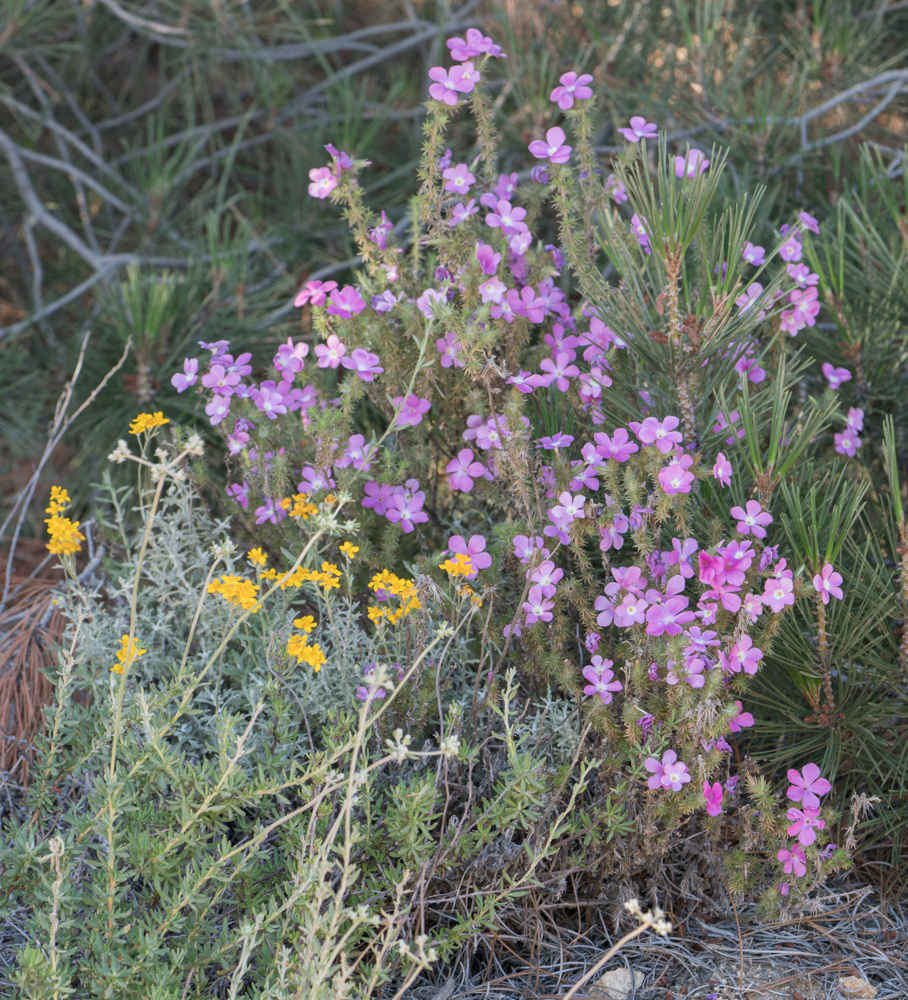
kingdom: Plantae
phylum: Tracheophyta
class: Magnoliopsida
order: Ericales
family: Polemoniaceae
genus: Linanthus
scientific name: Linanthus californicus
